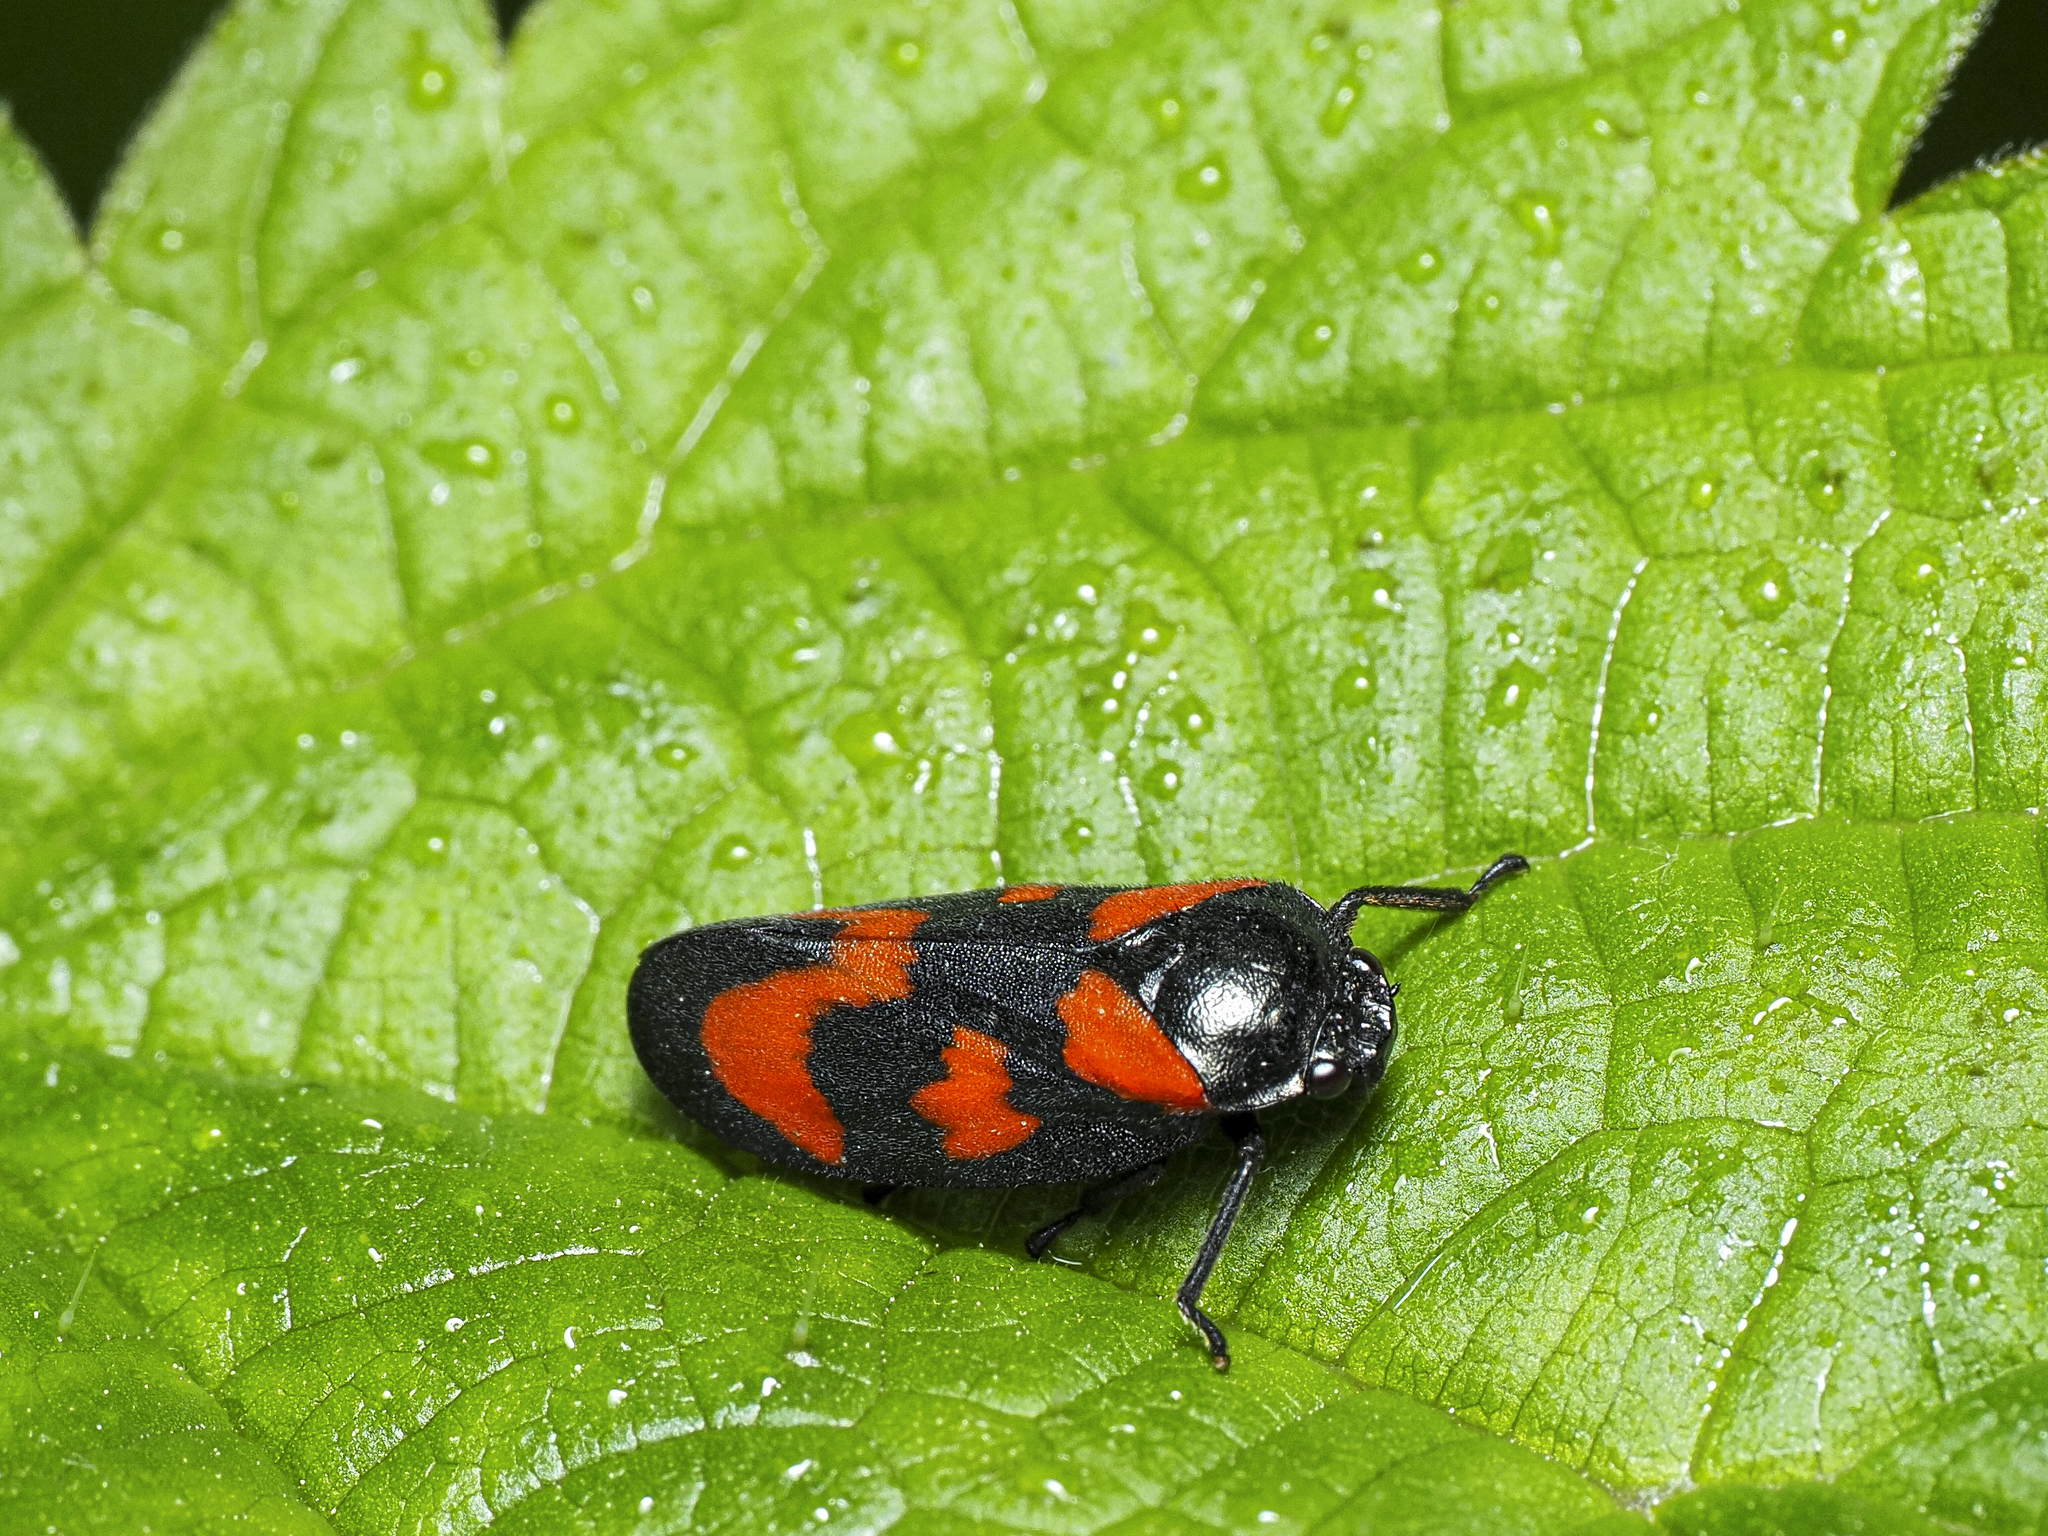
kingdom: Animalia
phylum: Arthropoda
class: Insecta
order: Hemiptera
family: Cercopidae
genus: Cercopis
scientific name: Cercopis vulnerata
